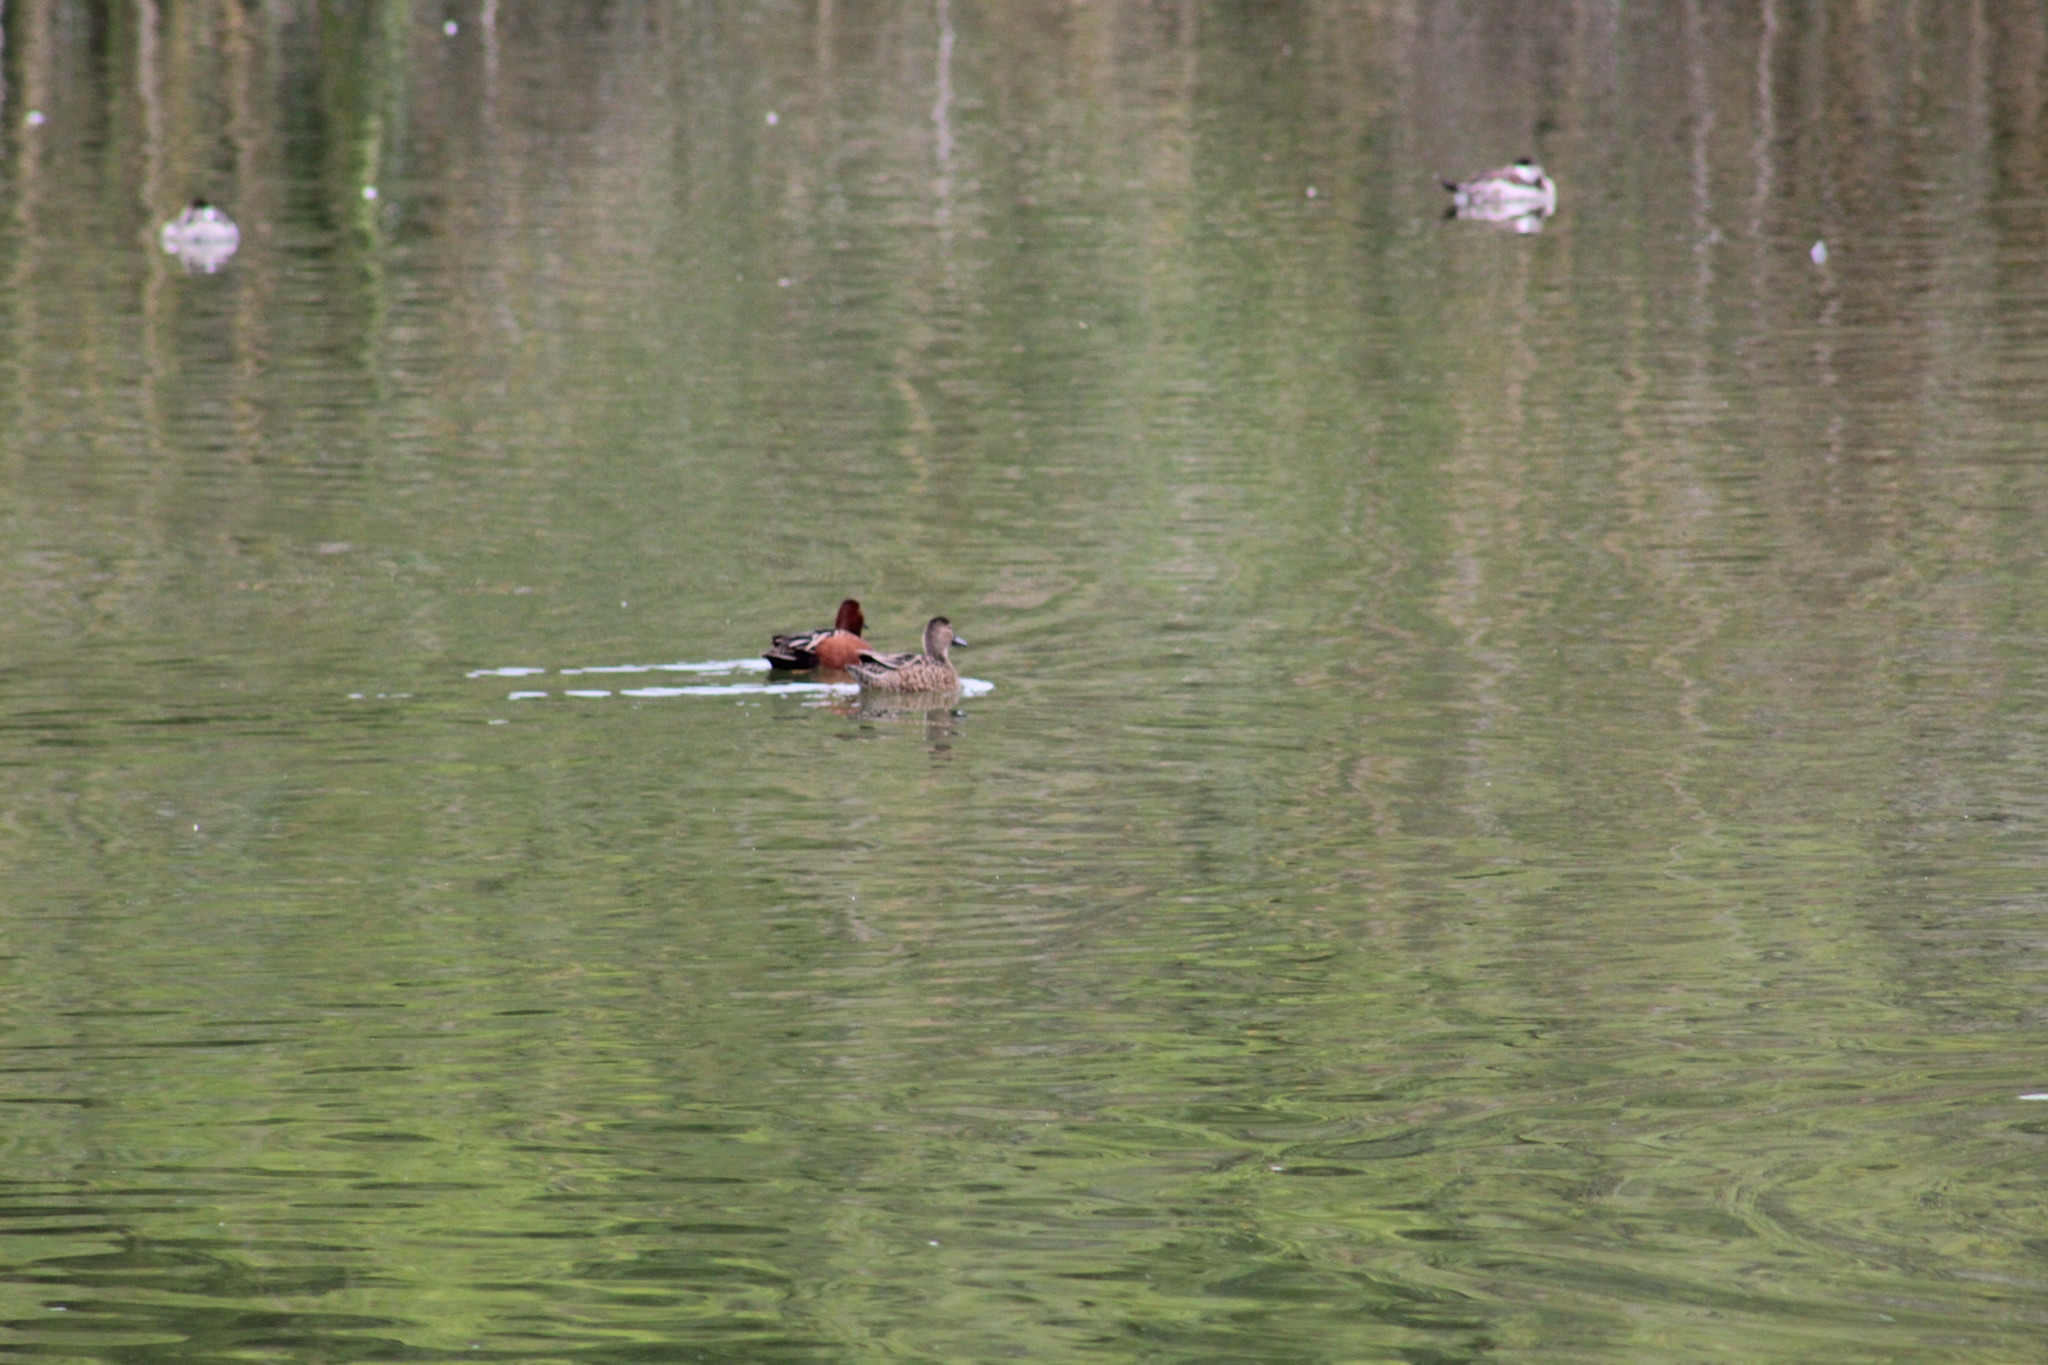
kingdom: Animalia
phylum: Chordata
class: Aves
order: Anseriformes
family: Anatidae
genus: Spatula
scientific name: Spatula cyanoptera
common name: Cinnamon teal
